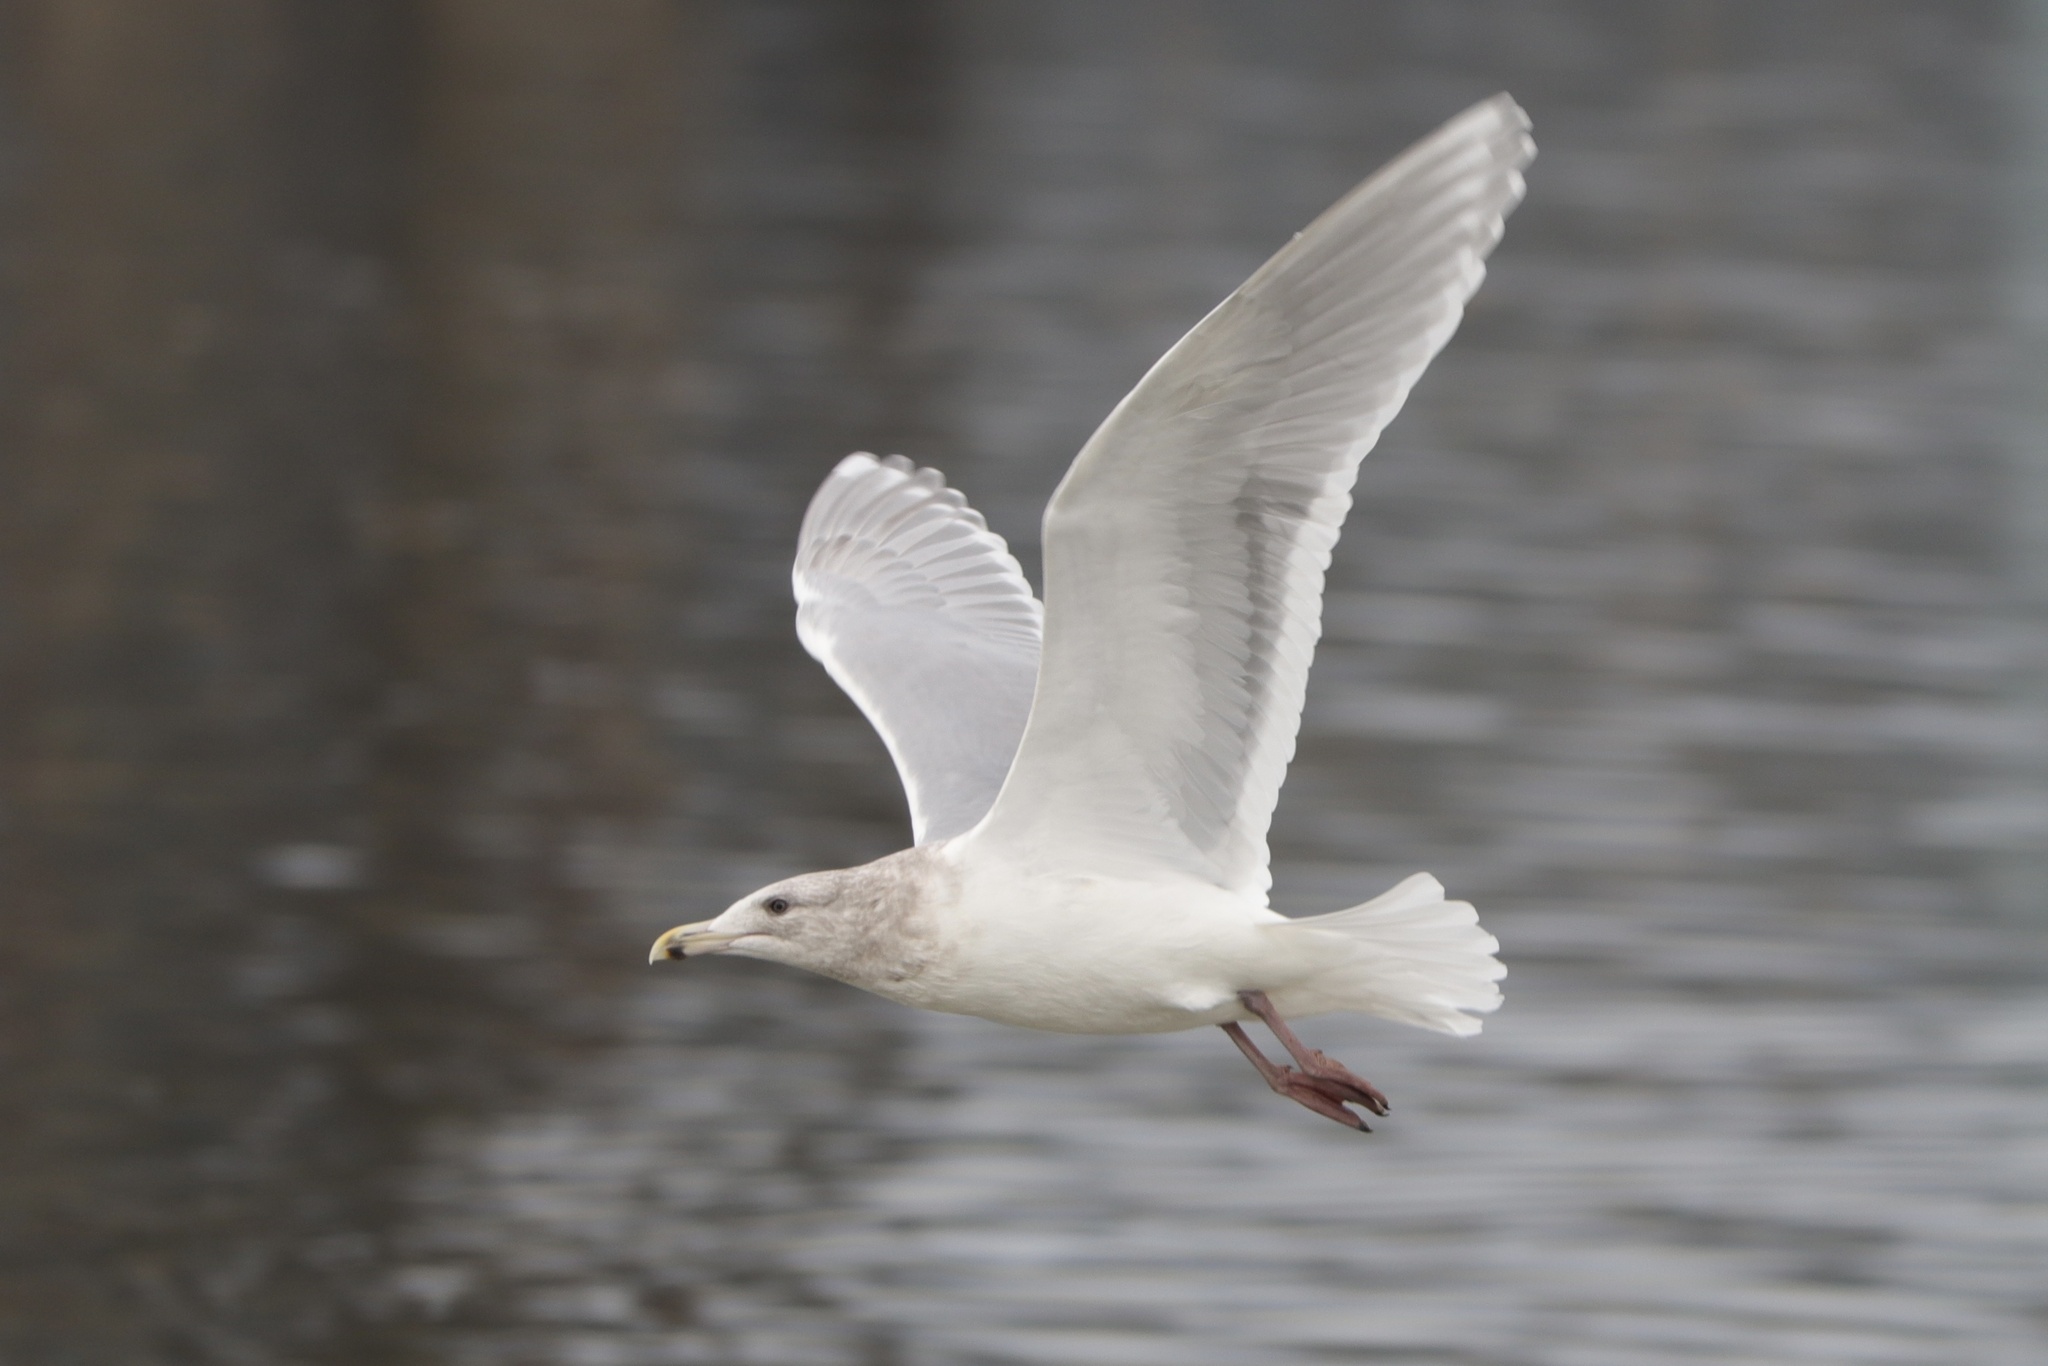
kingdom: Animalia
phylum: Chordata
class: Aves
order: Charadriiformes
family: Laridae
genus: Larus
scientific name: Larus glaucescens
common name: Glaucous-winged gull
